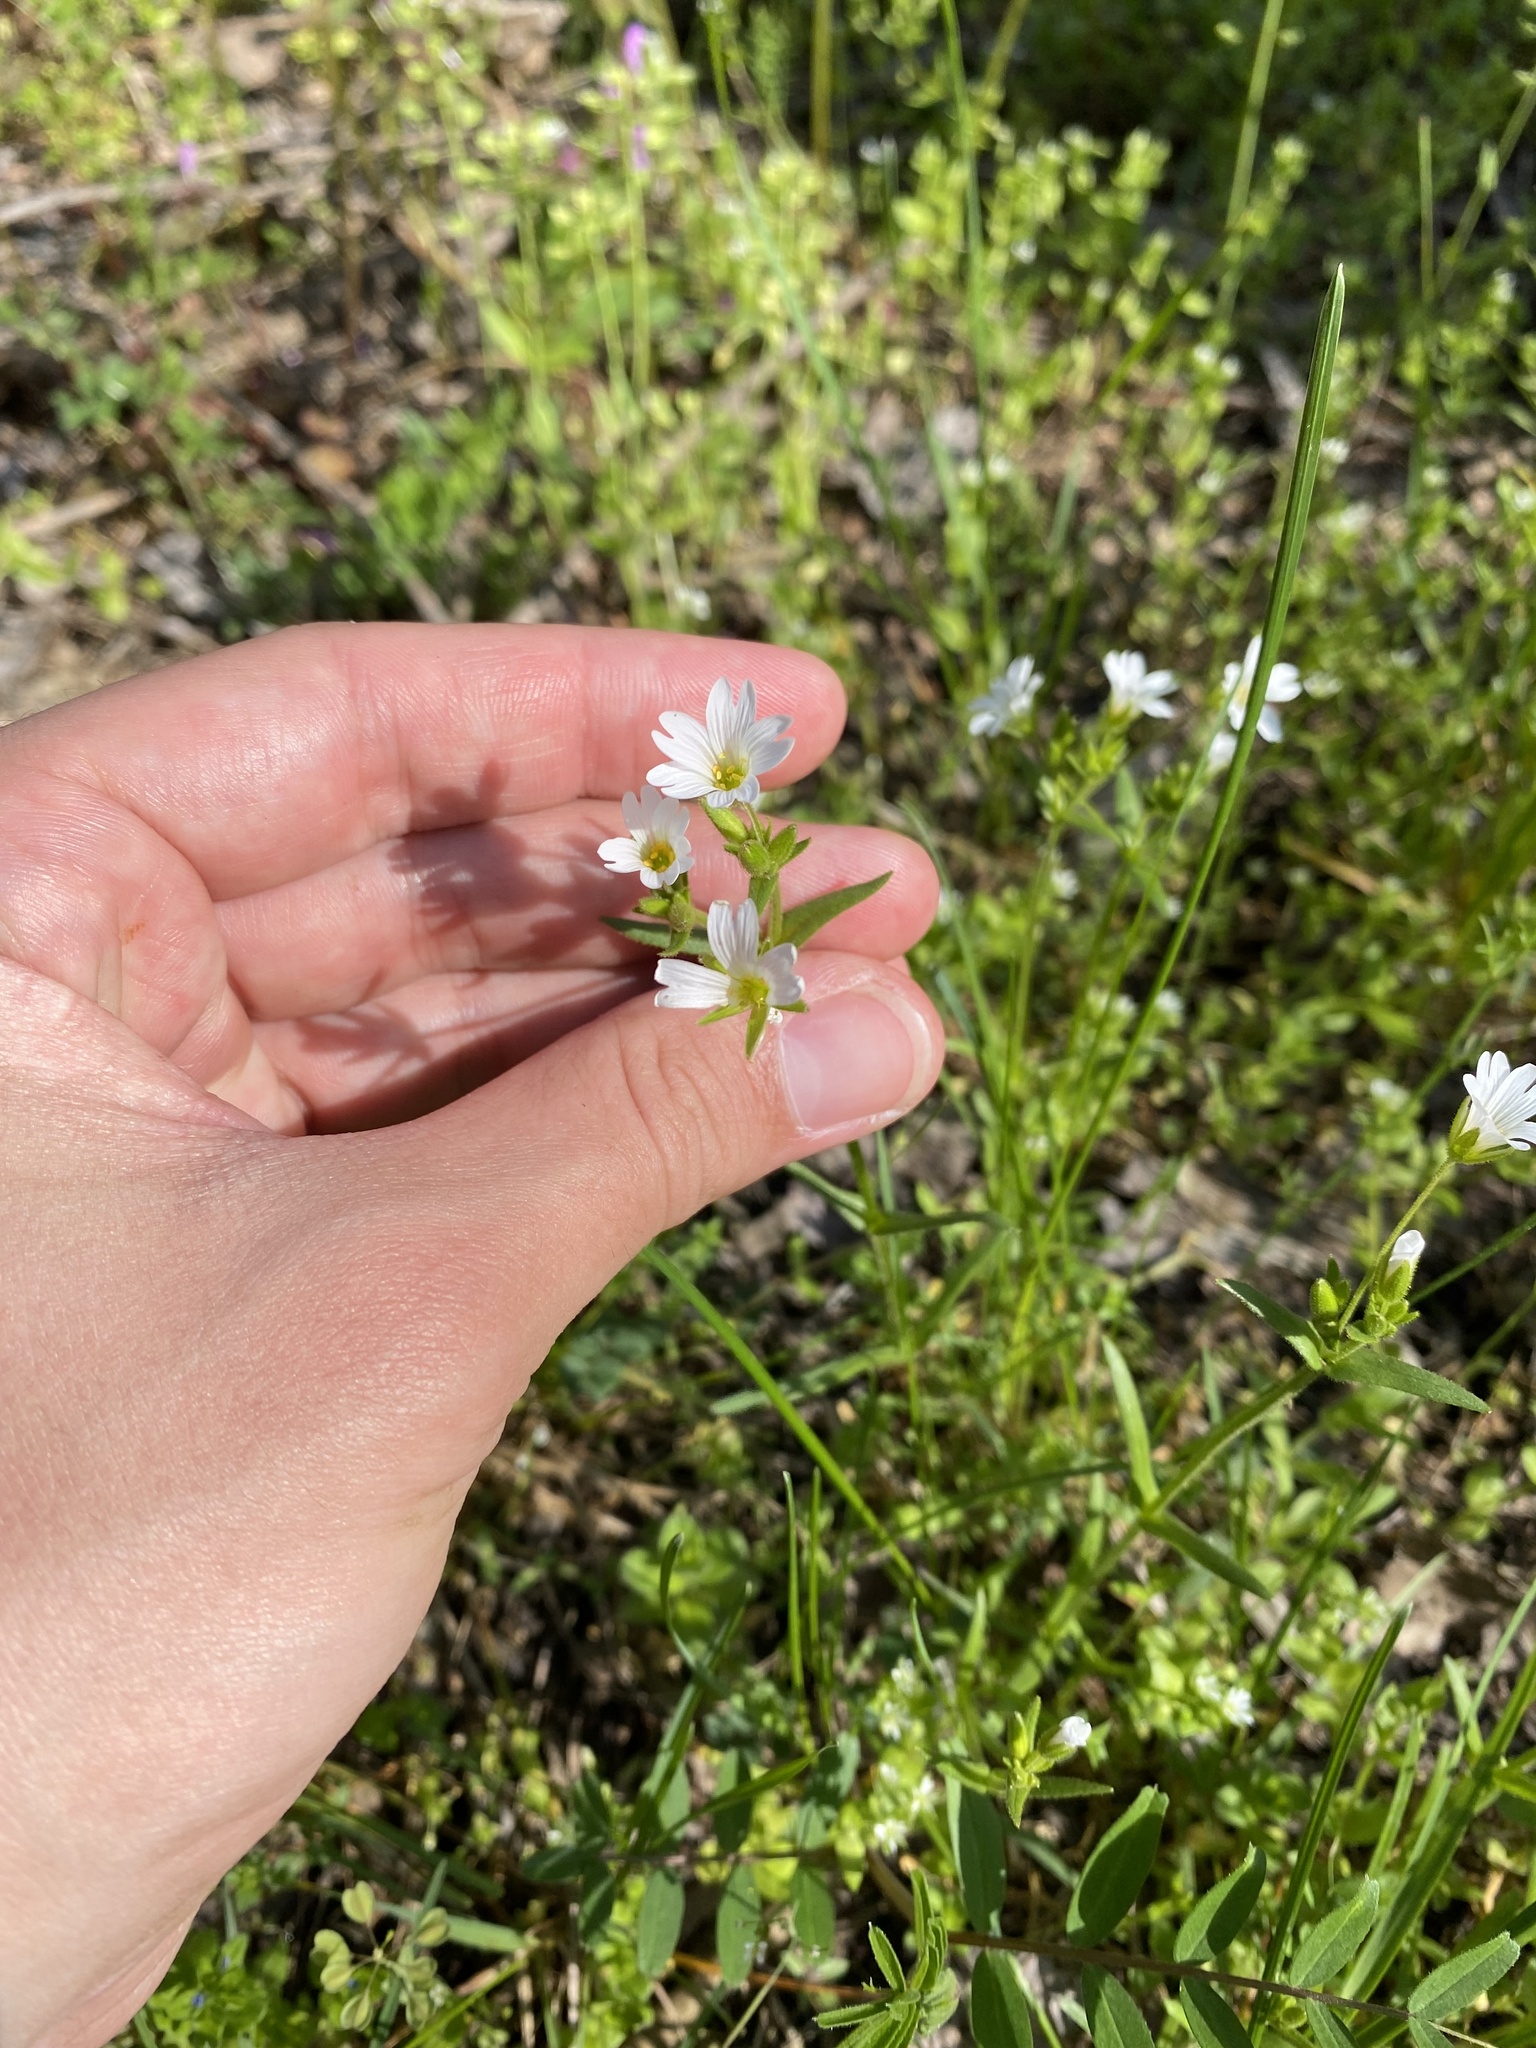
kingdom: Plantae
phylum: Tracheophyta
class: Magnoliopsida
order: Caryophyllales
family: Caryophyllaceae
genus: Dichodon
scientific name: Dichodon viscidum
